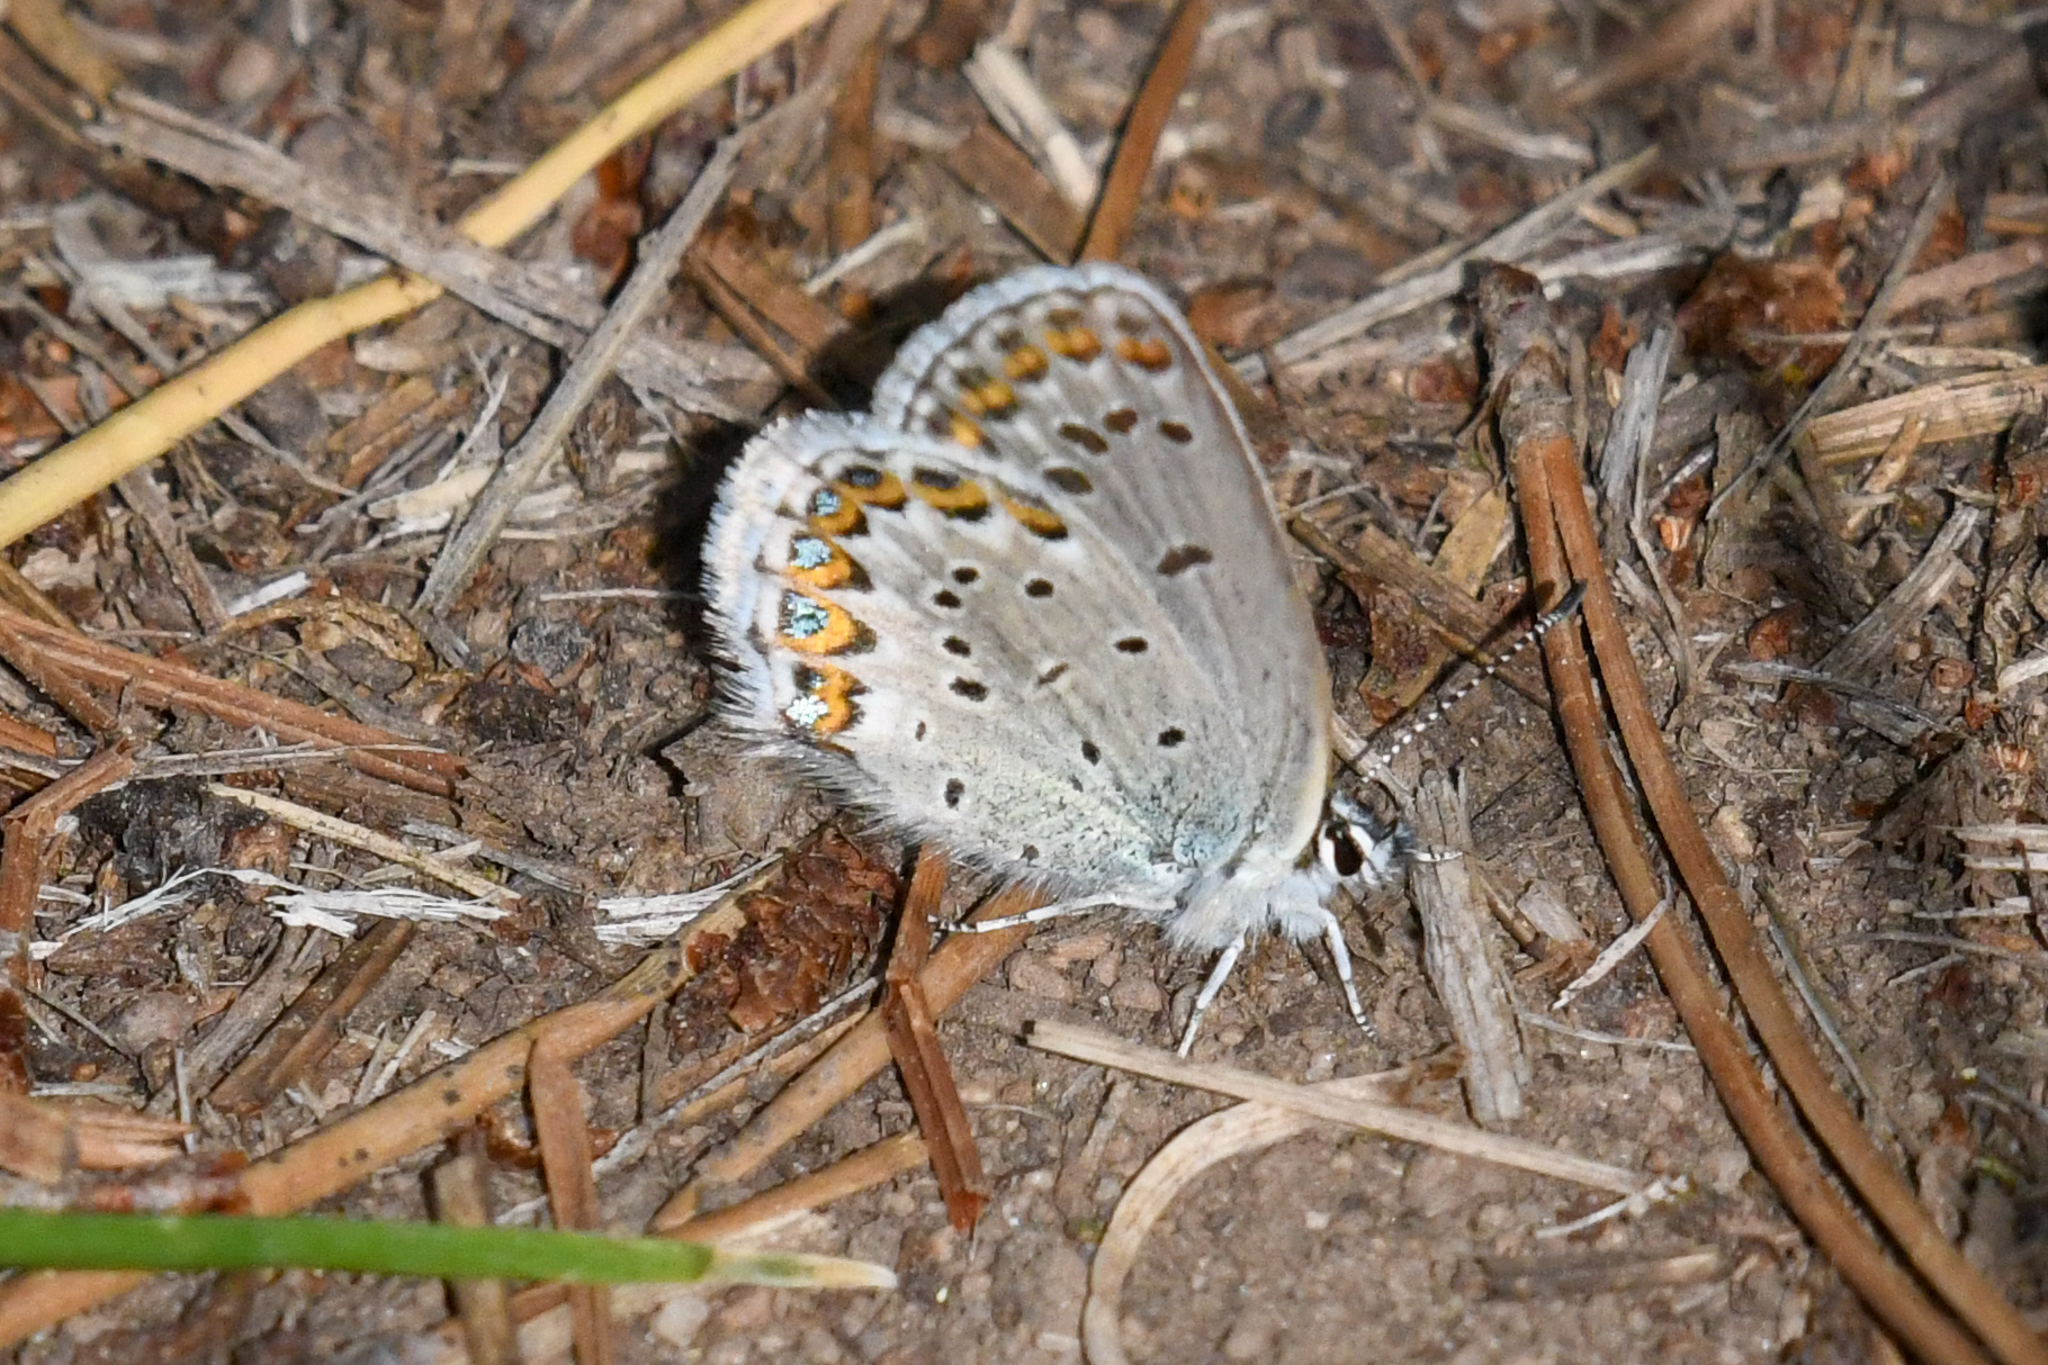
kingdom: Animalia
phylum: Arthropoda
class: Insecta
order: Lepidoptera
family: Lycaenidae
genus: Lycaeides
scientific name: Lycaeides idas
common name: Northern blue
